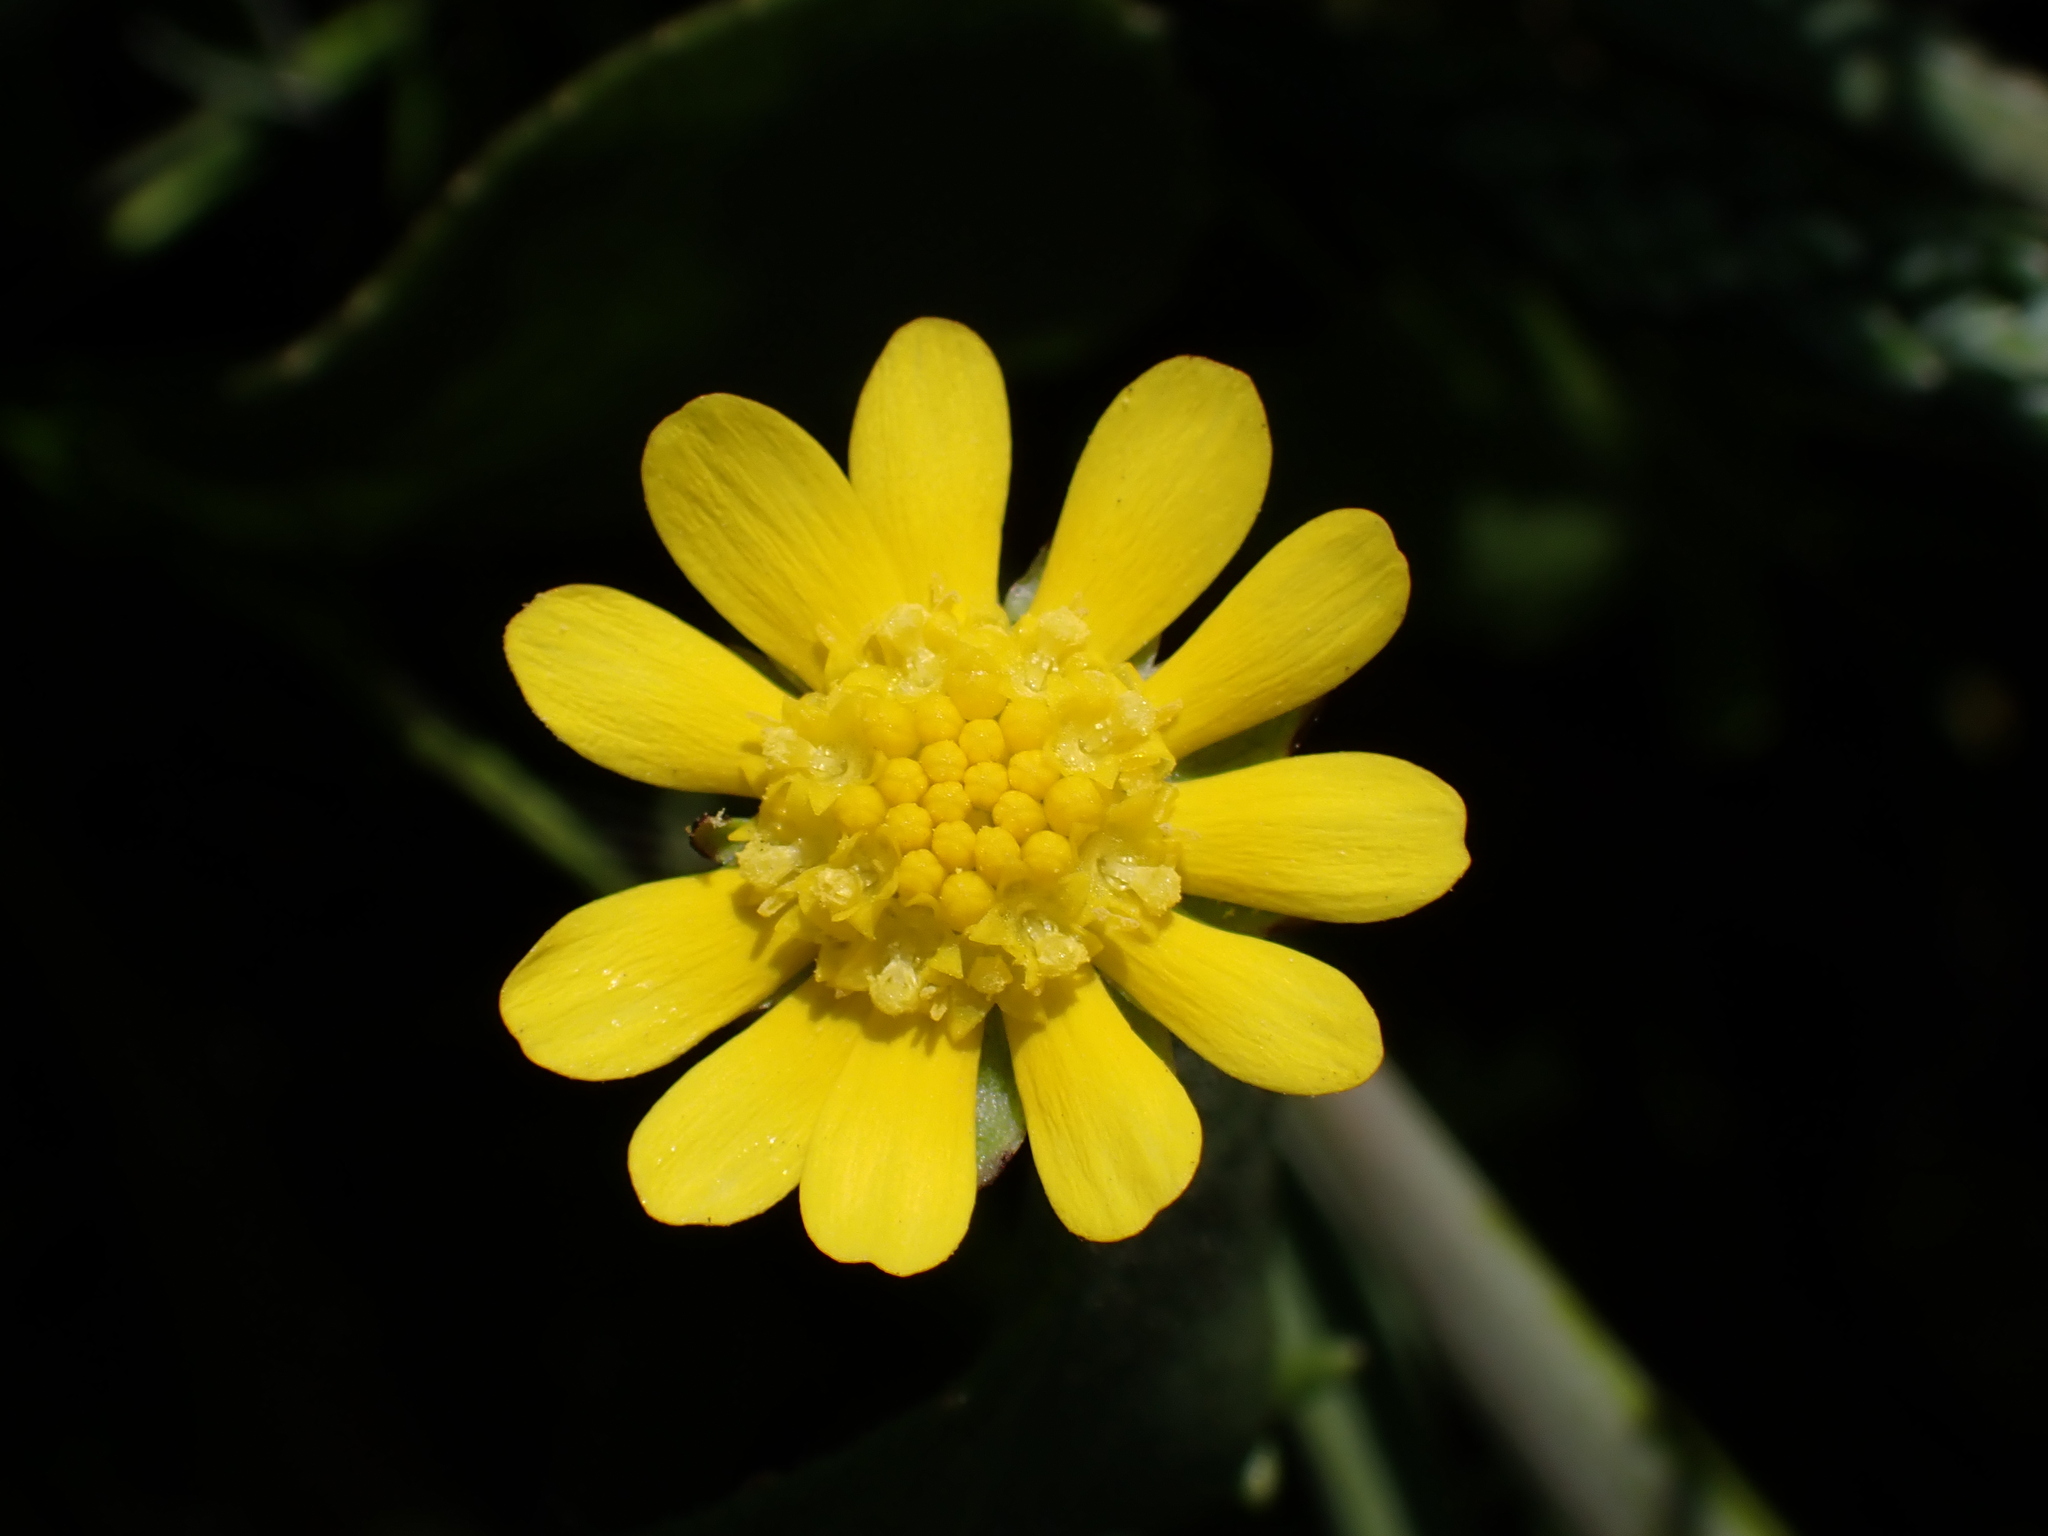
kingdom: Plantae
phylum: Tracheophyta
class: Magnoliopsida
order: Asterales
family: Asteraceae
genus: Blennosperma
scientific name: Blennosperma nanum
